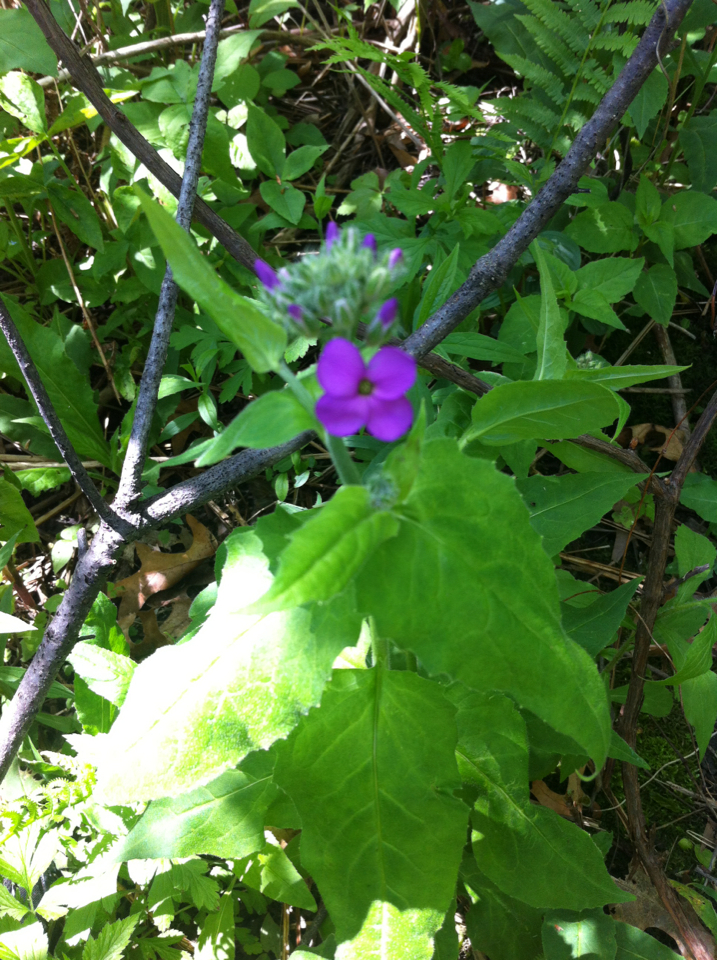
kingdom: Plantae
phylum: Tracheophyta
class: Magnoliopsida
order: Brassicales
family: Brassicaceae
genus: Hesperis
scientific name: Hesperis matronalis
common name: Dame's-violet
